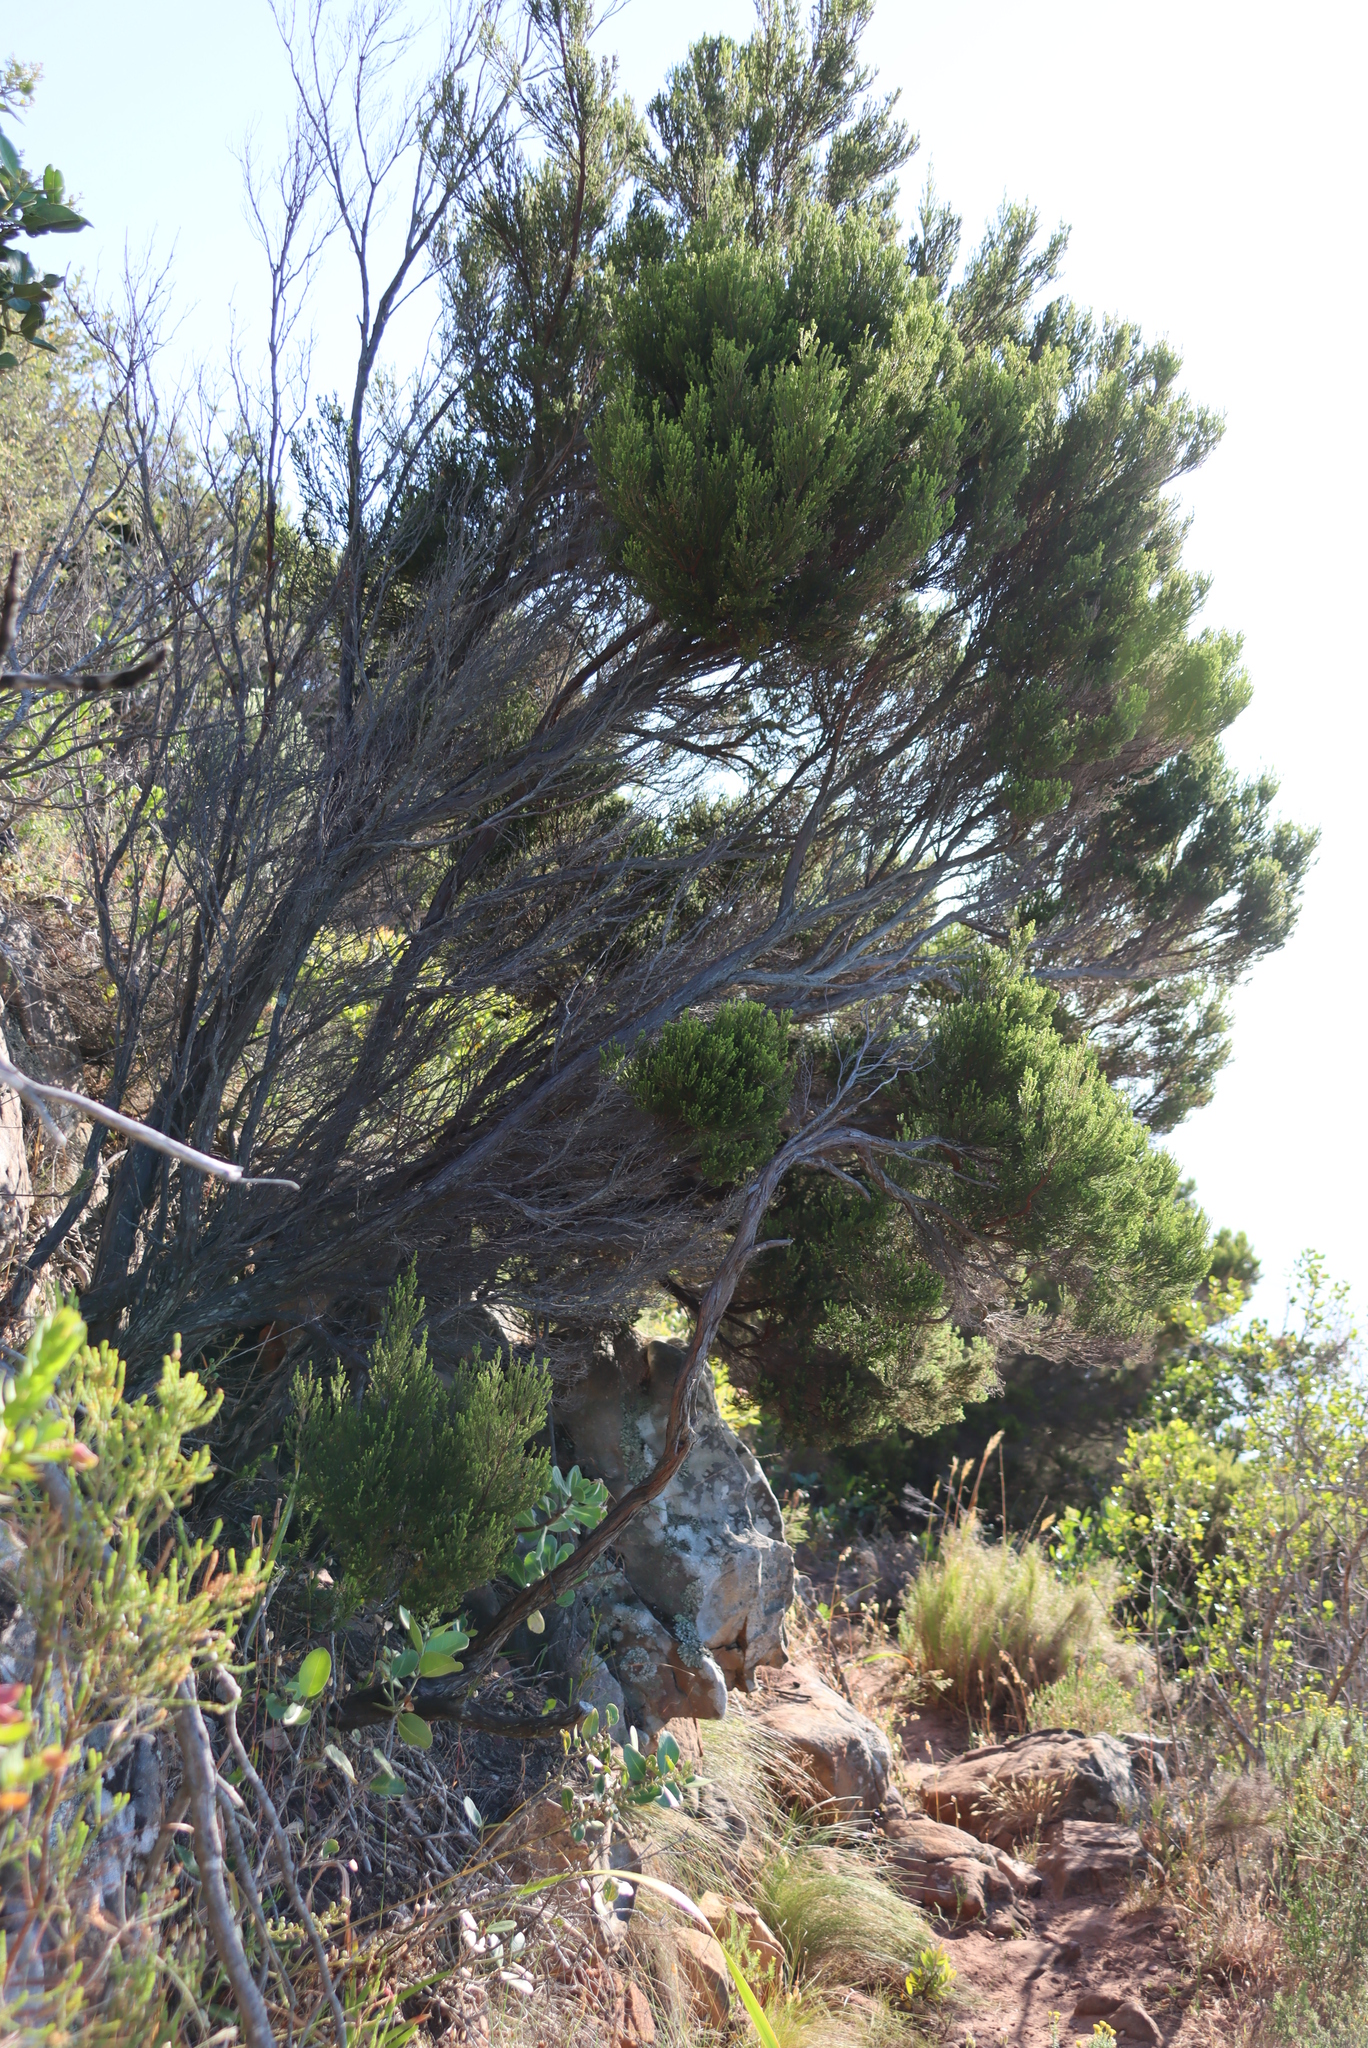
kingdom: Plantae
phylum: Tracheophyta
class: Magnoliopsida
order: Ericales
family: Ericaceae
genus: Erica
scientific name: Erica tristis
